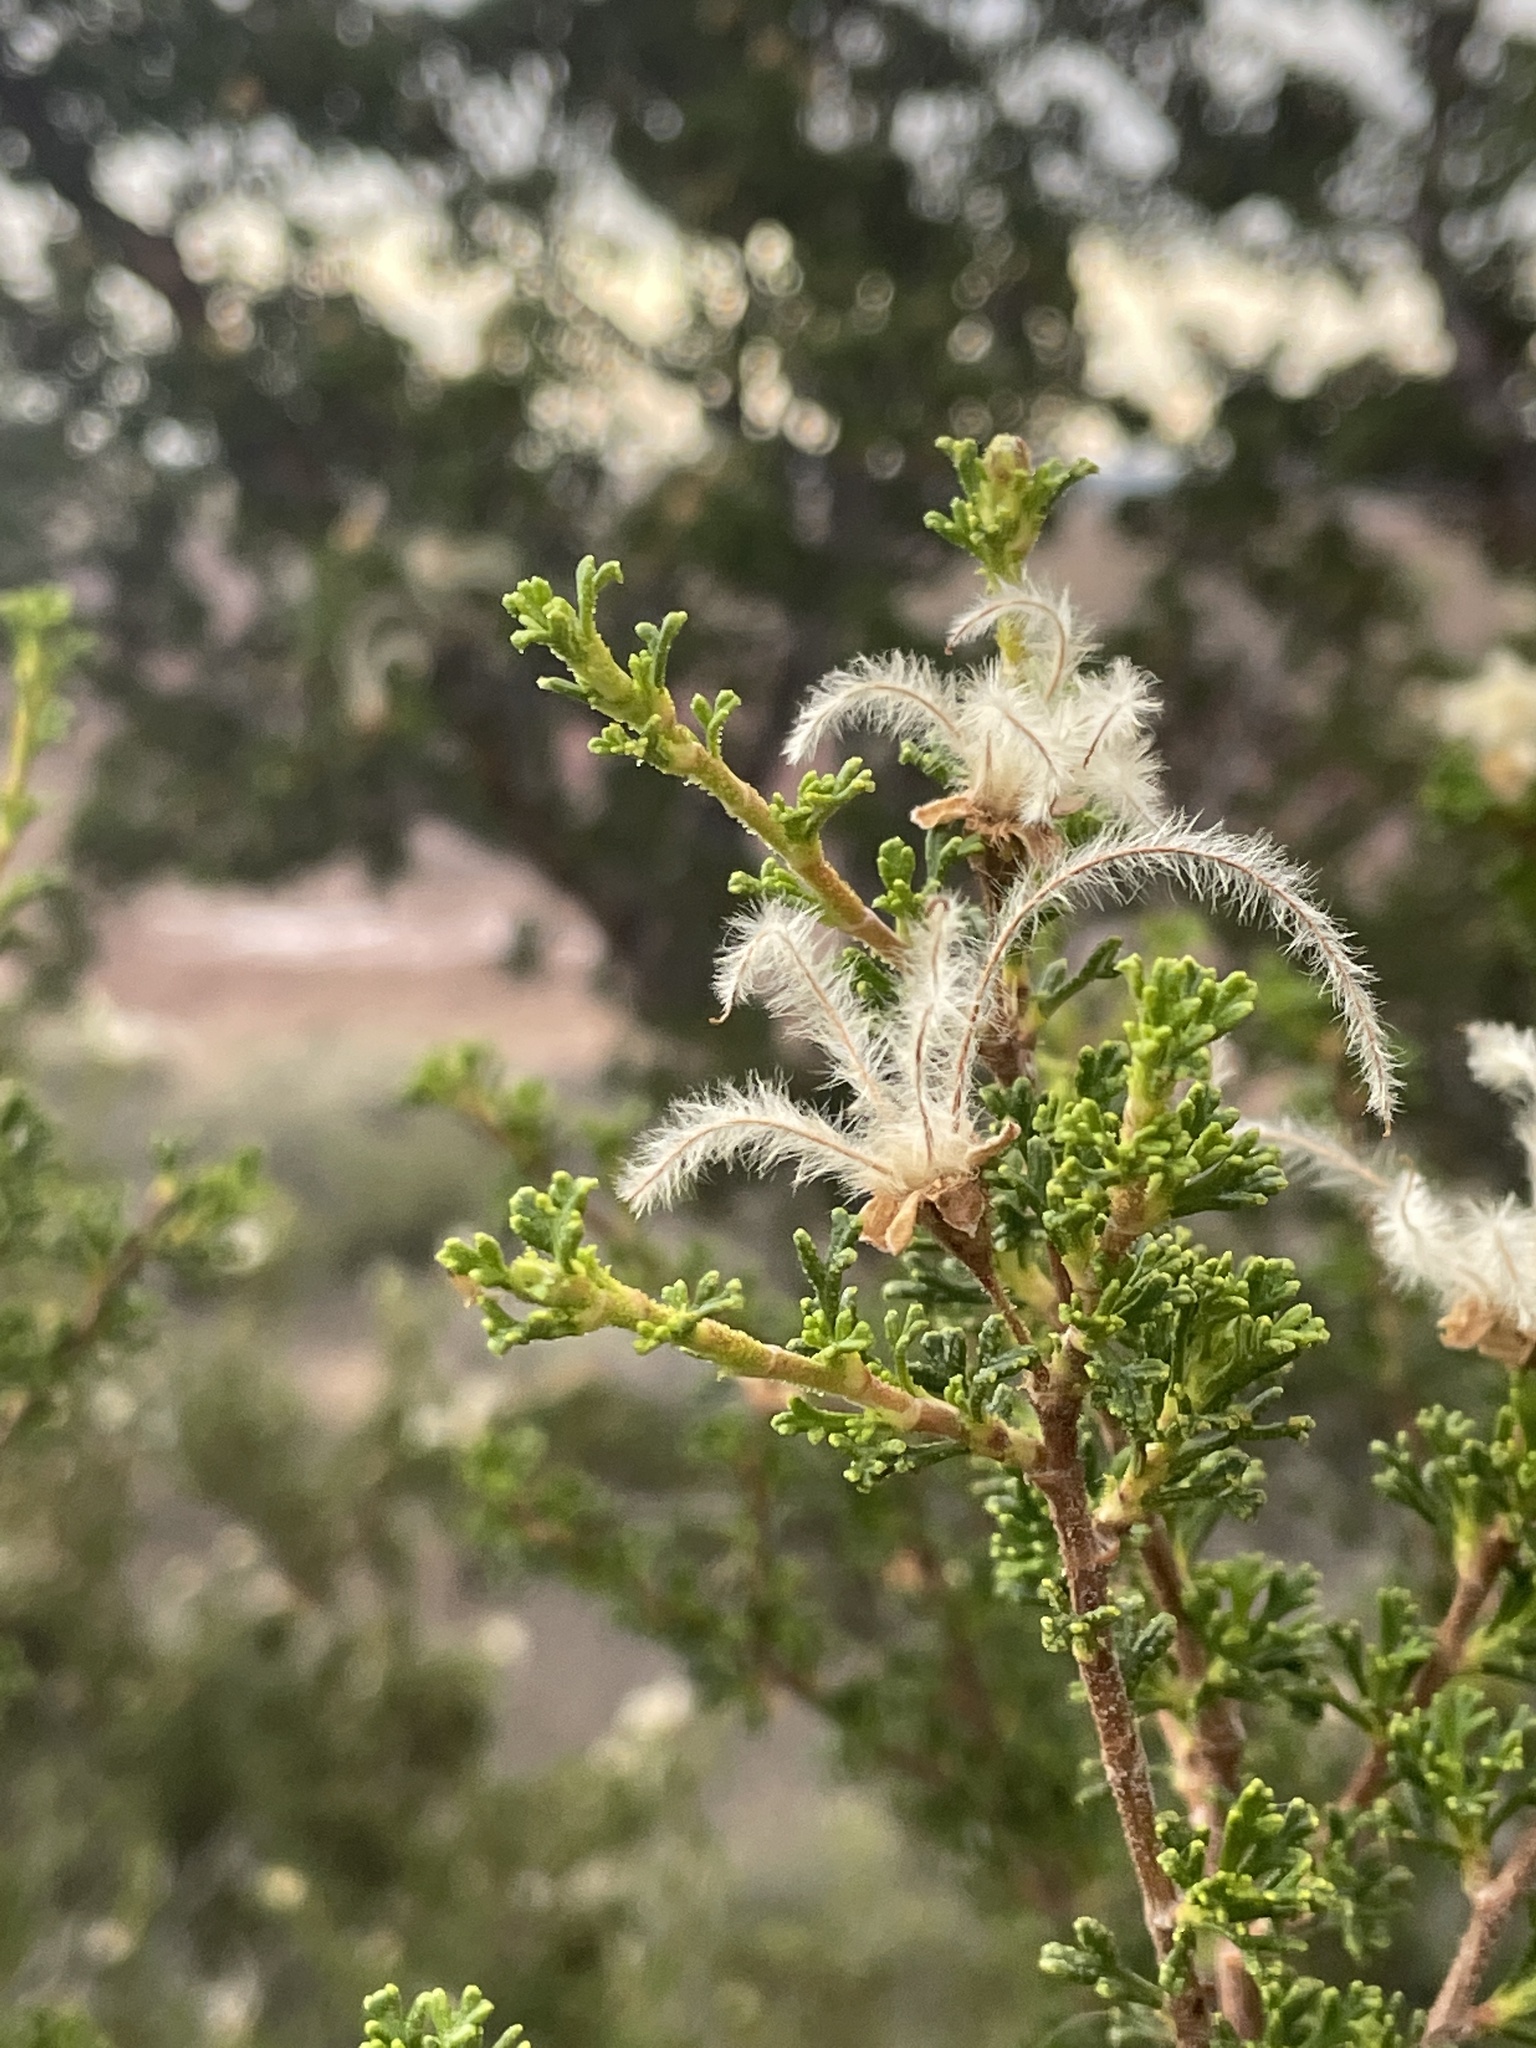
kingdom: Plantae
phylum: Tracheophyta
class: Magnoliopsida
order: Rosales
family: Rosaceae
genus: Purshia
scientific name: Purshia stansburiana
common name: Stansbury's cliffrose
